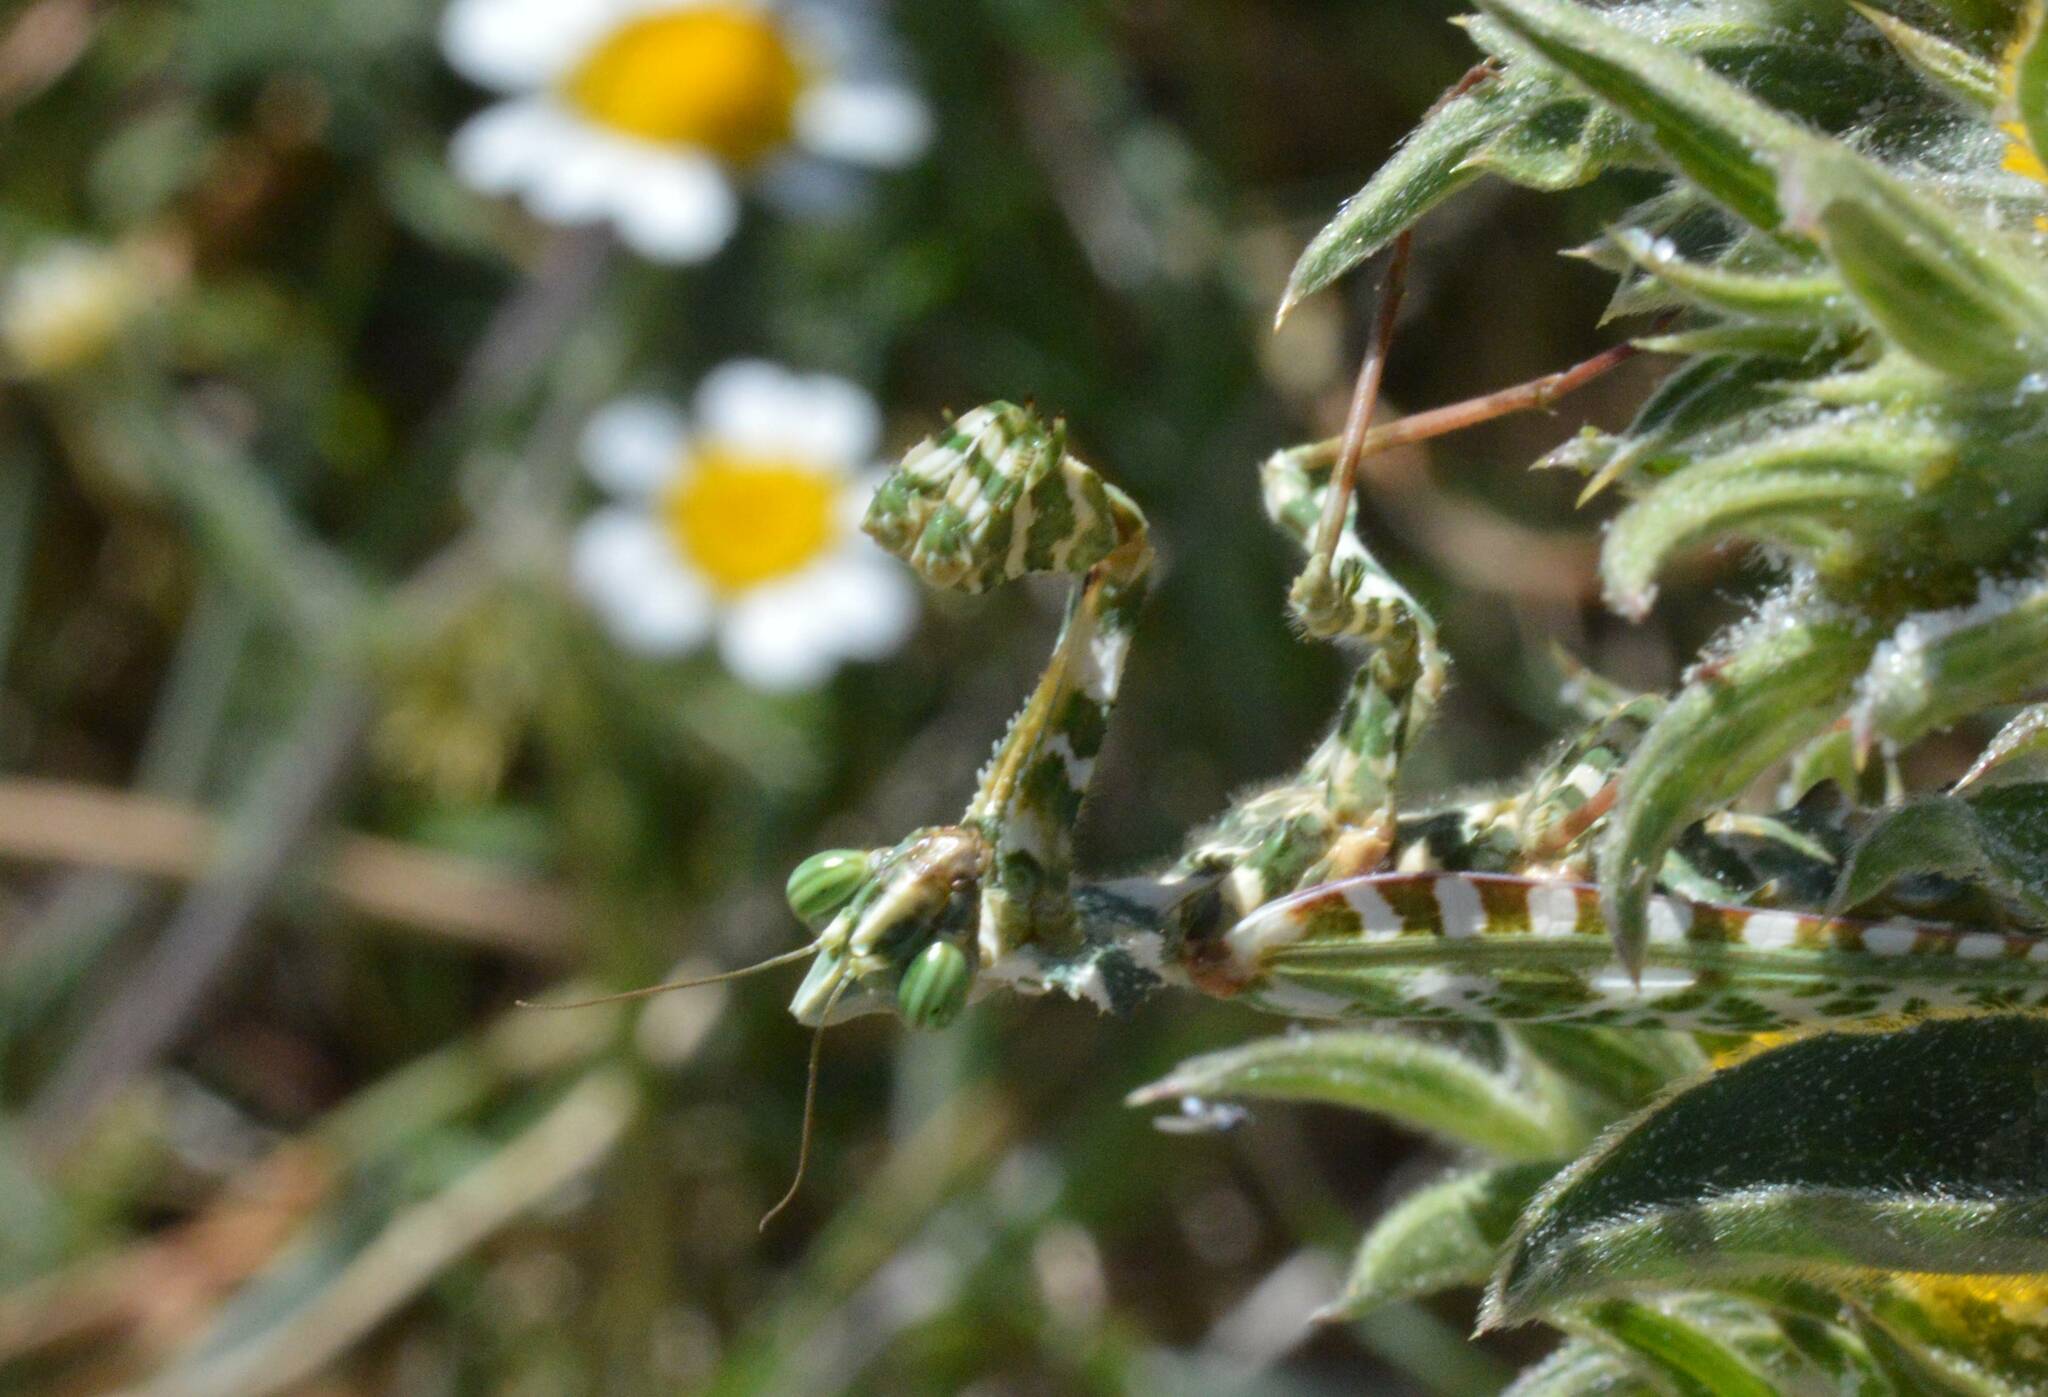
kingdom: Animalia
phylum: Arthropoda
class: Insecta
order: Mantodea
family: Empusidae
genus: Blepharopsis
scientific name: Blepharopsis mendica
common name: Devil's flower mantis
